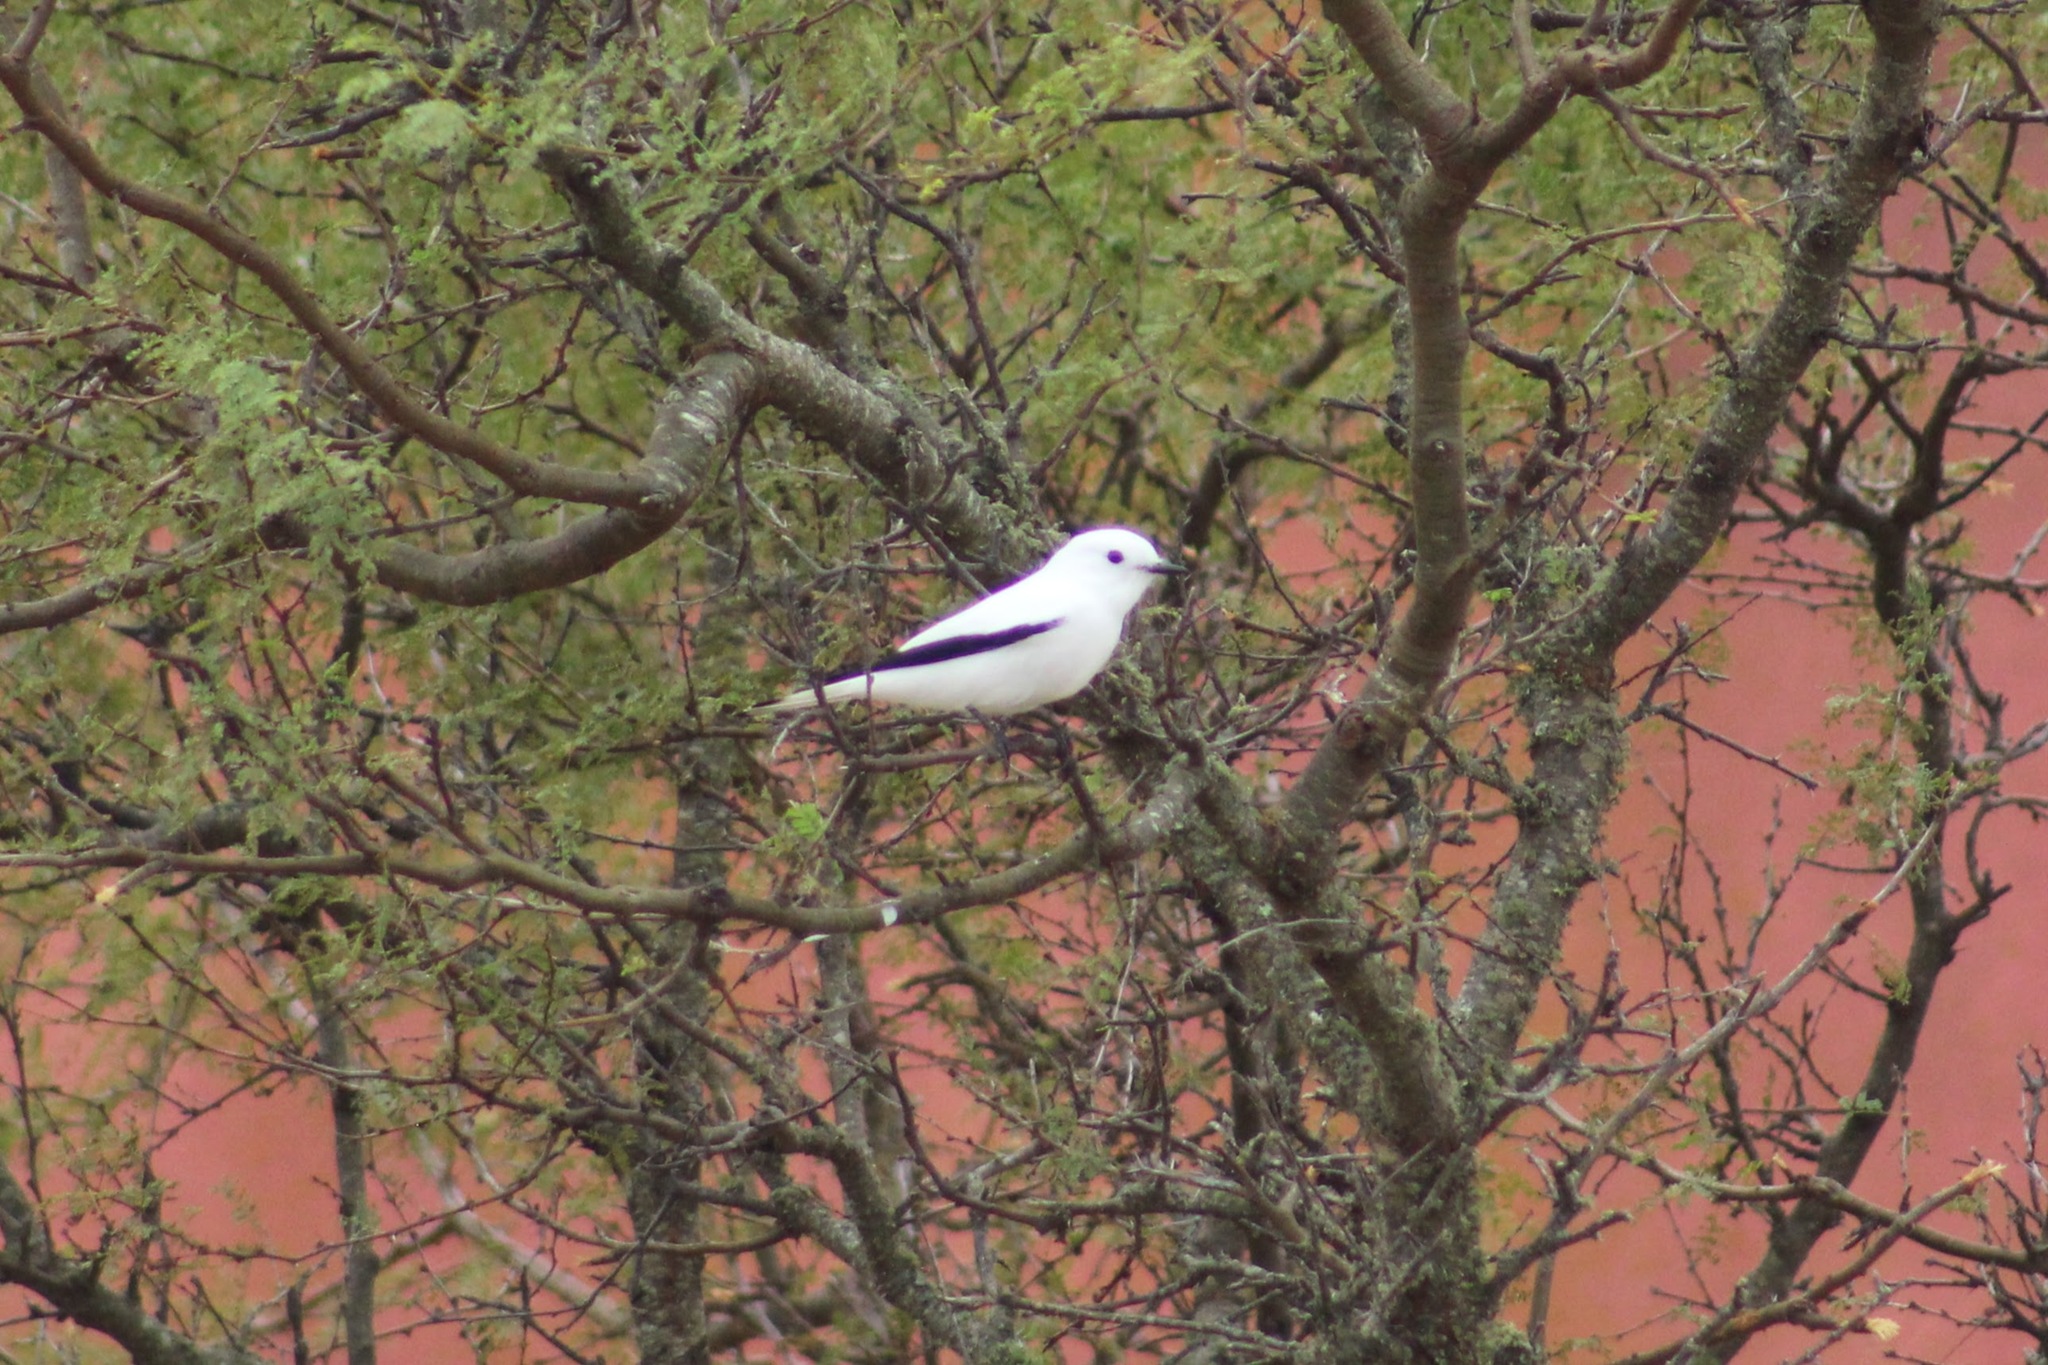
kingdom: Animalia
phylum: Chordata
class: Aves
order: Passeriformes
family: Tyrannidae
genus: Xolmis
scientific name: Xolmis irupero
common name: White monjita
